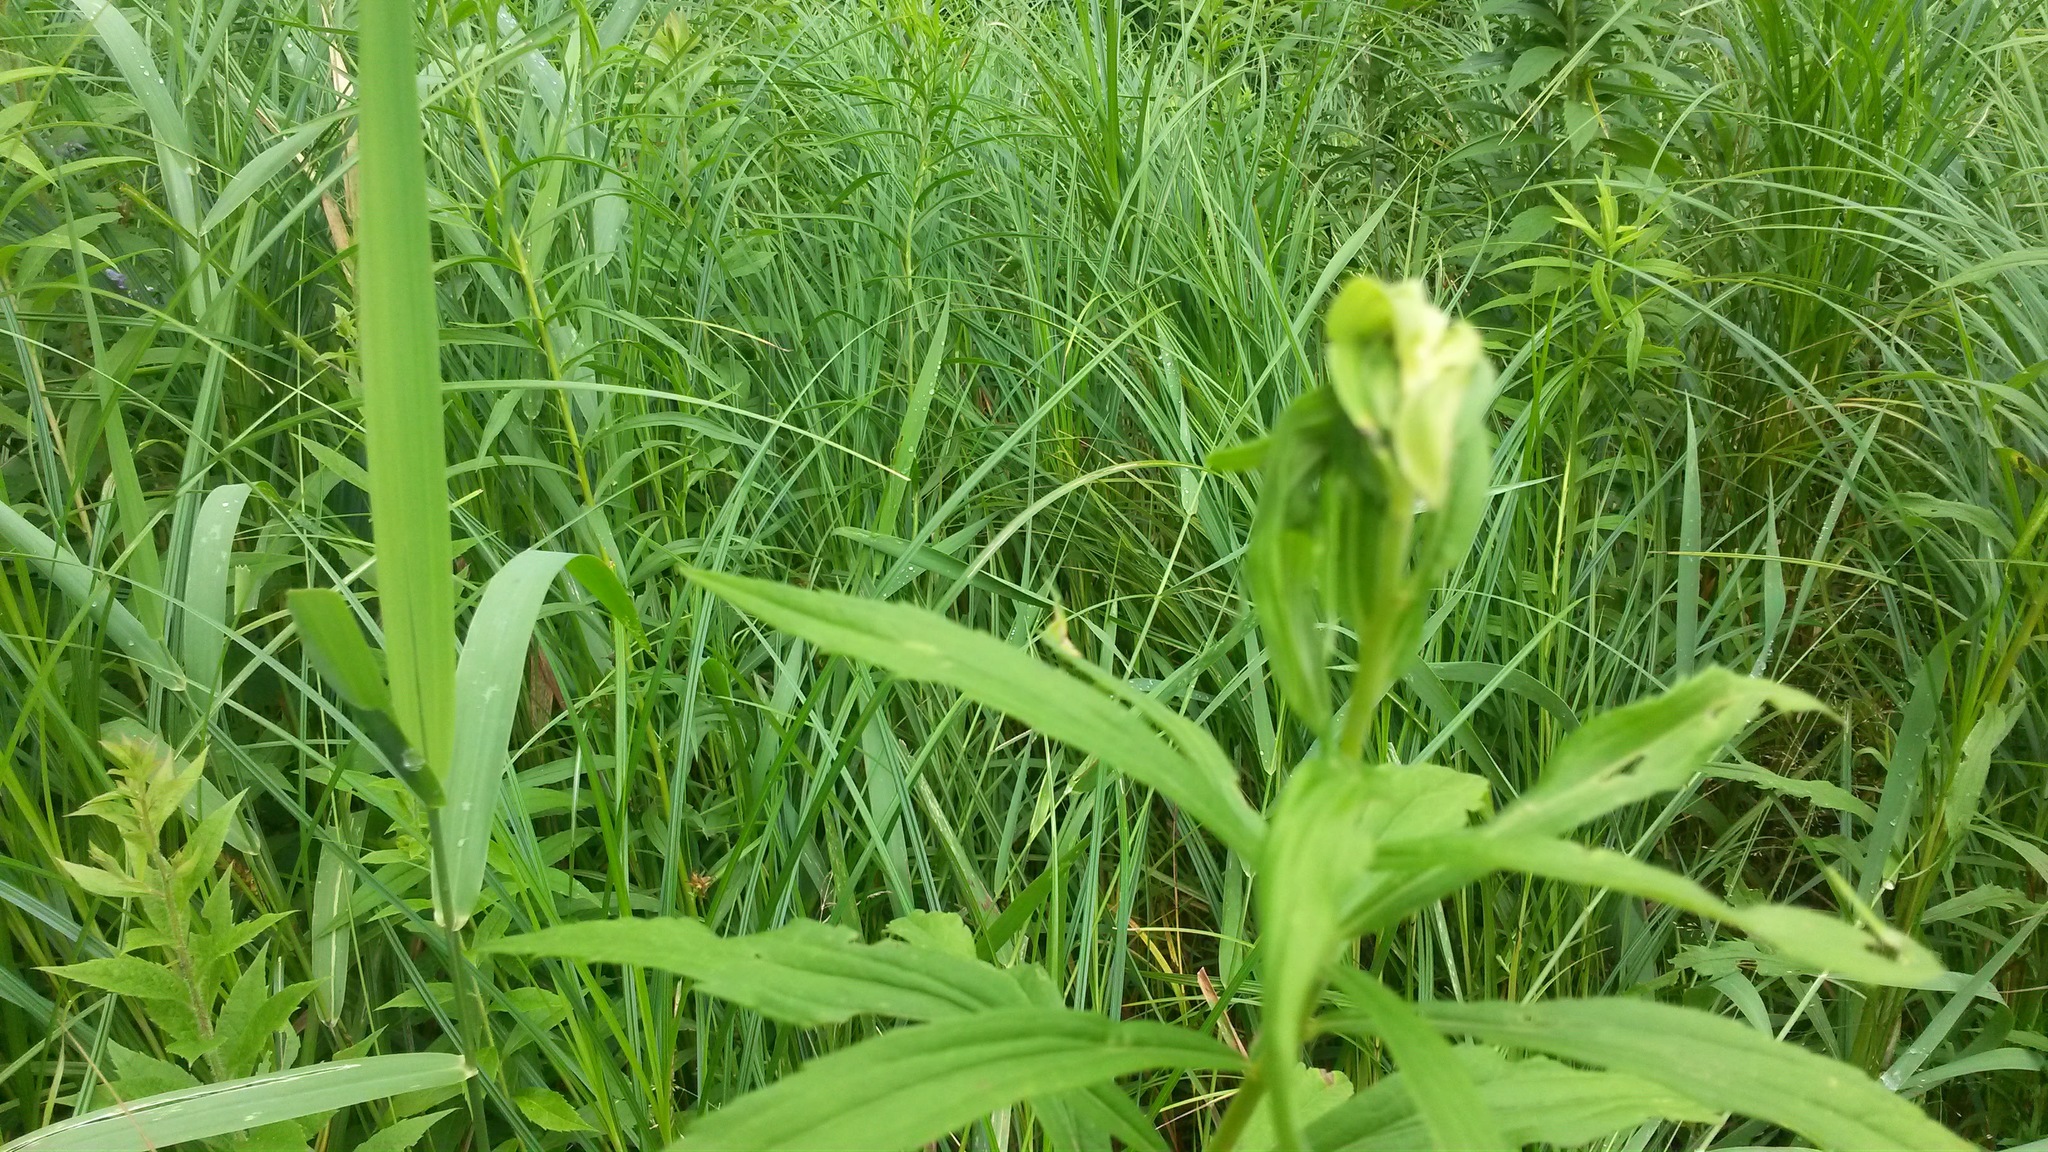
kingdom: Plantae
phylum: Tracheophyta
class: Magnoliopsida
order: Asterales
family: Asteraceae
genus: Solidago
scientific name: Solidago
